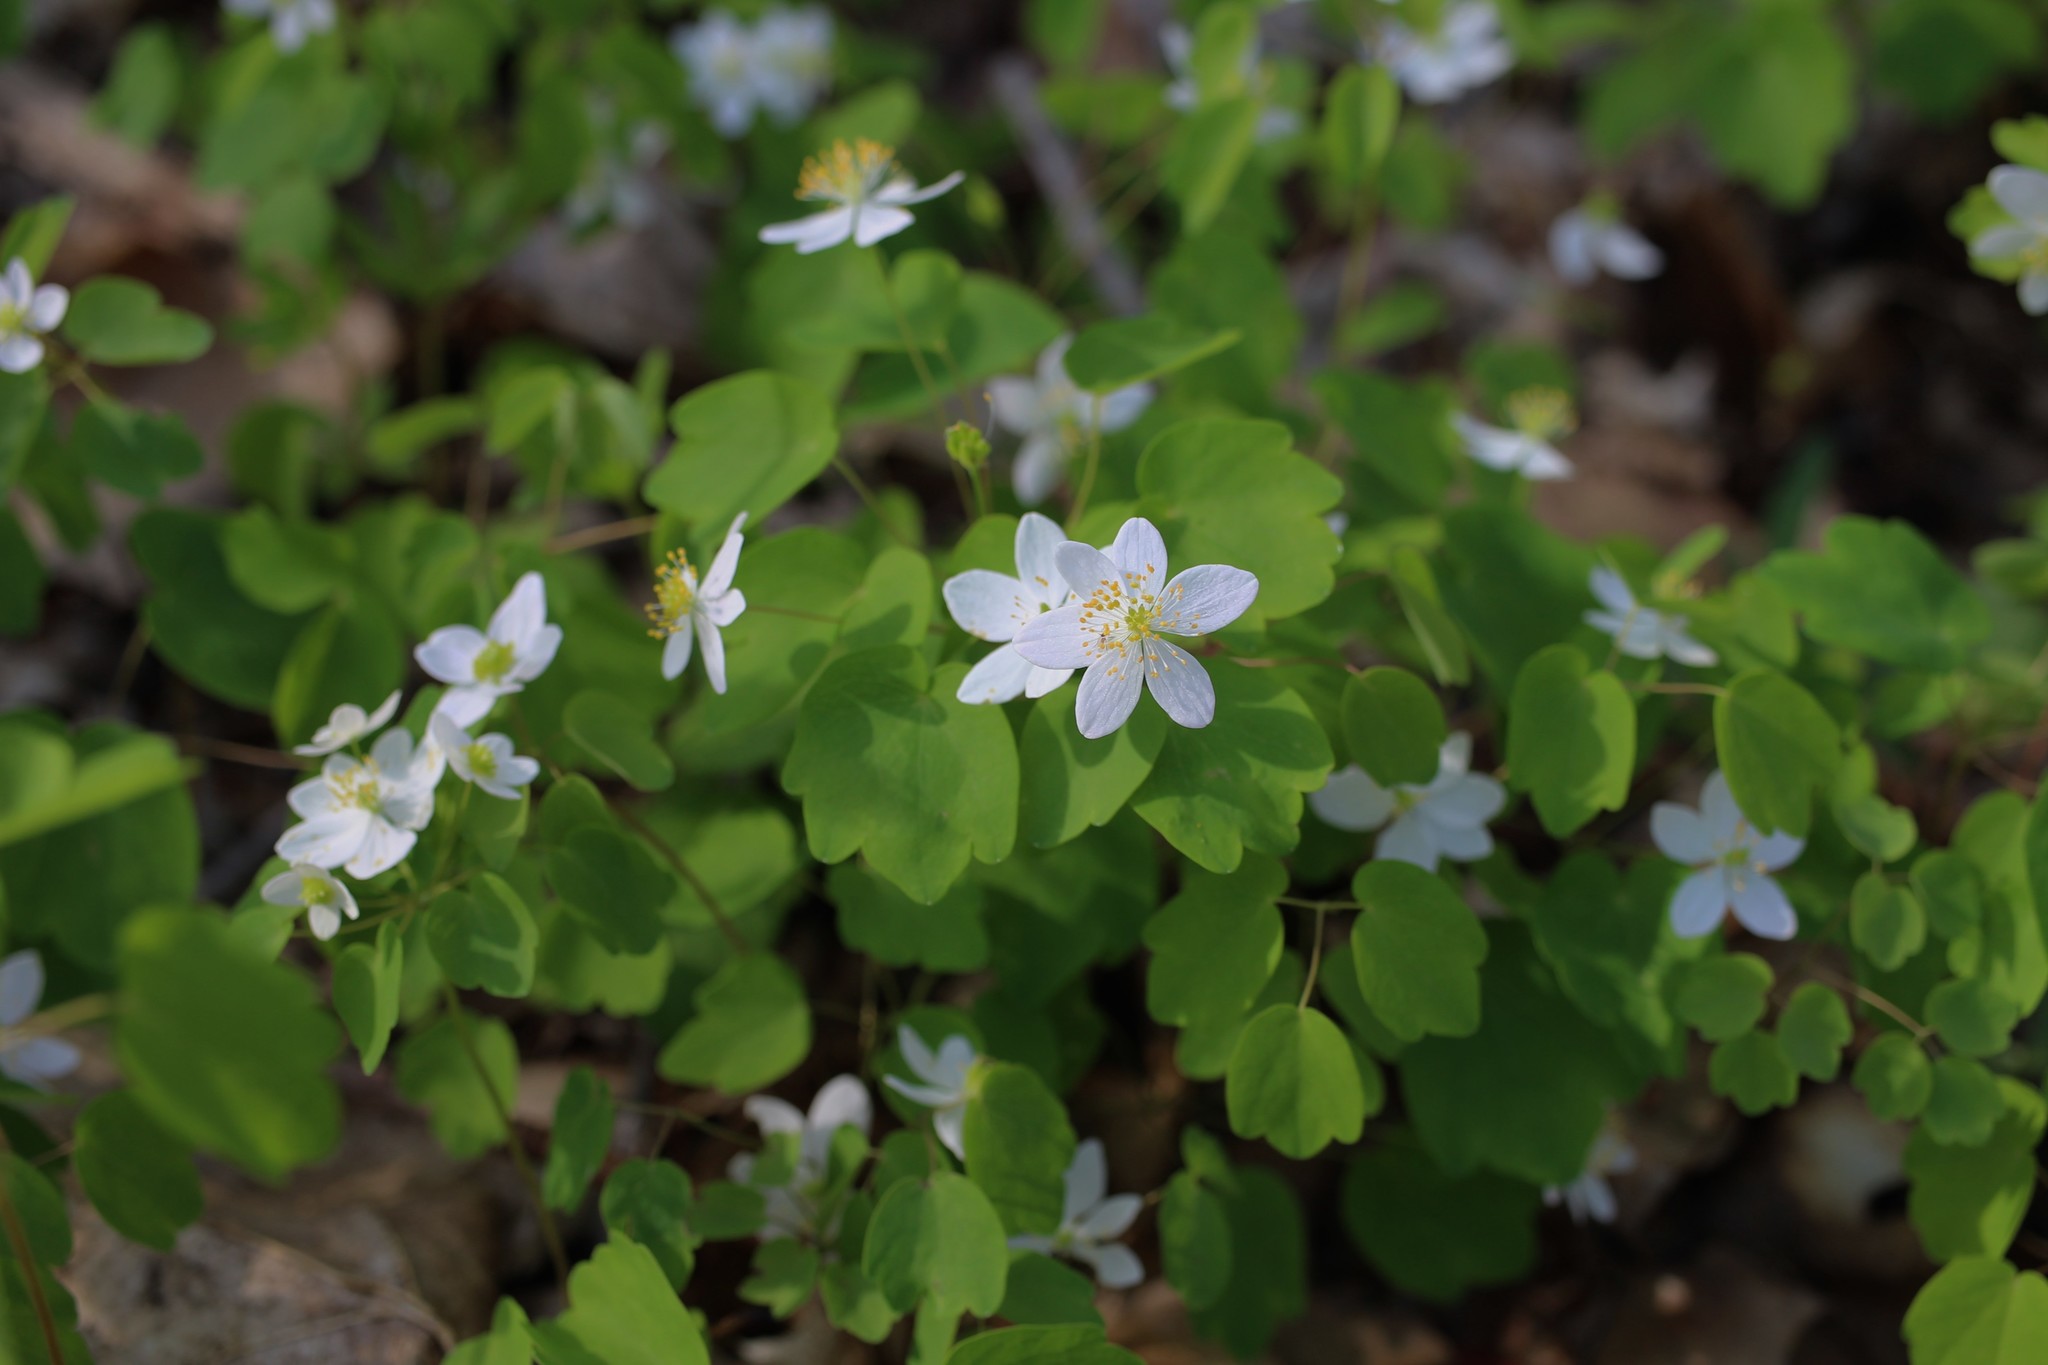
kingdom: Plantae
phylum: Tracheophyta
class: Magnoliopsida
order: Ranunculales
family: Ranunculaceae
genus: Thalictrum
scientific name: Thalictrum thalictroides
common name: Rue-anemone
